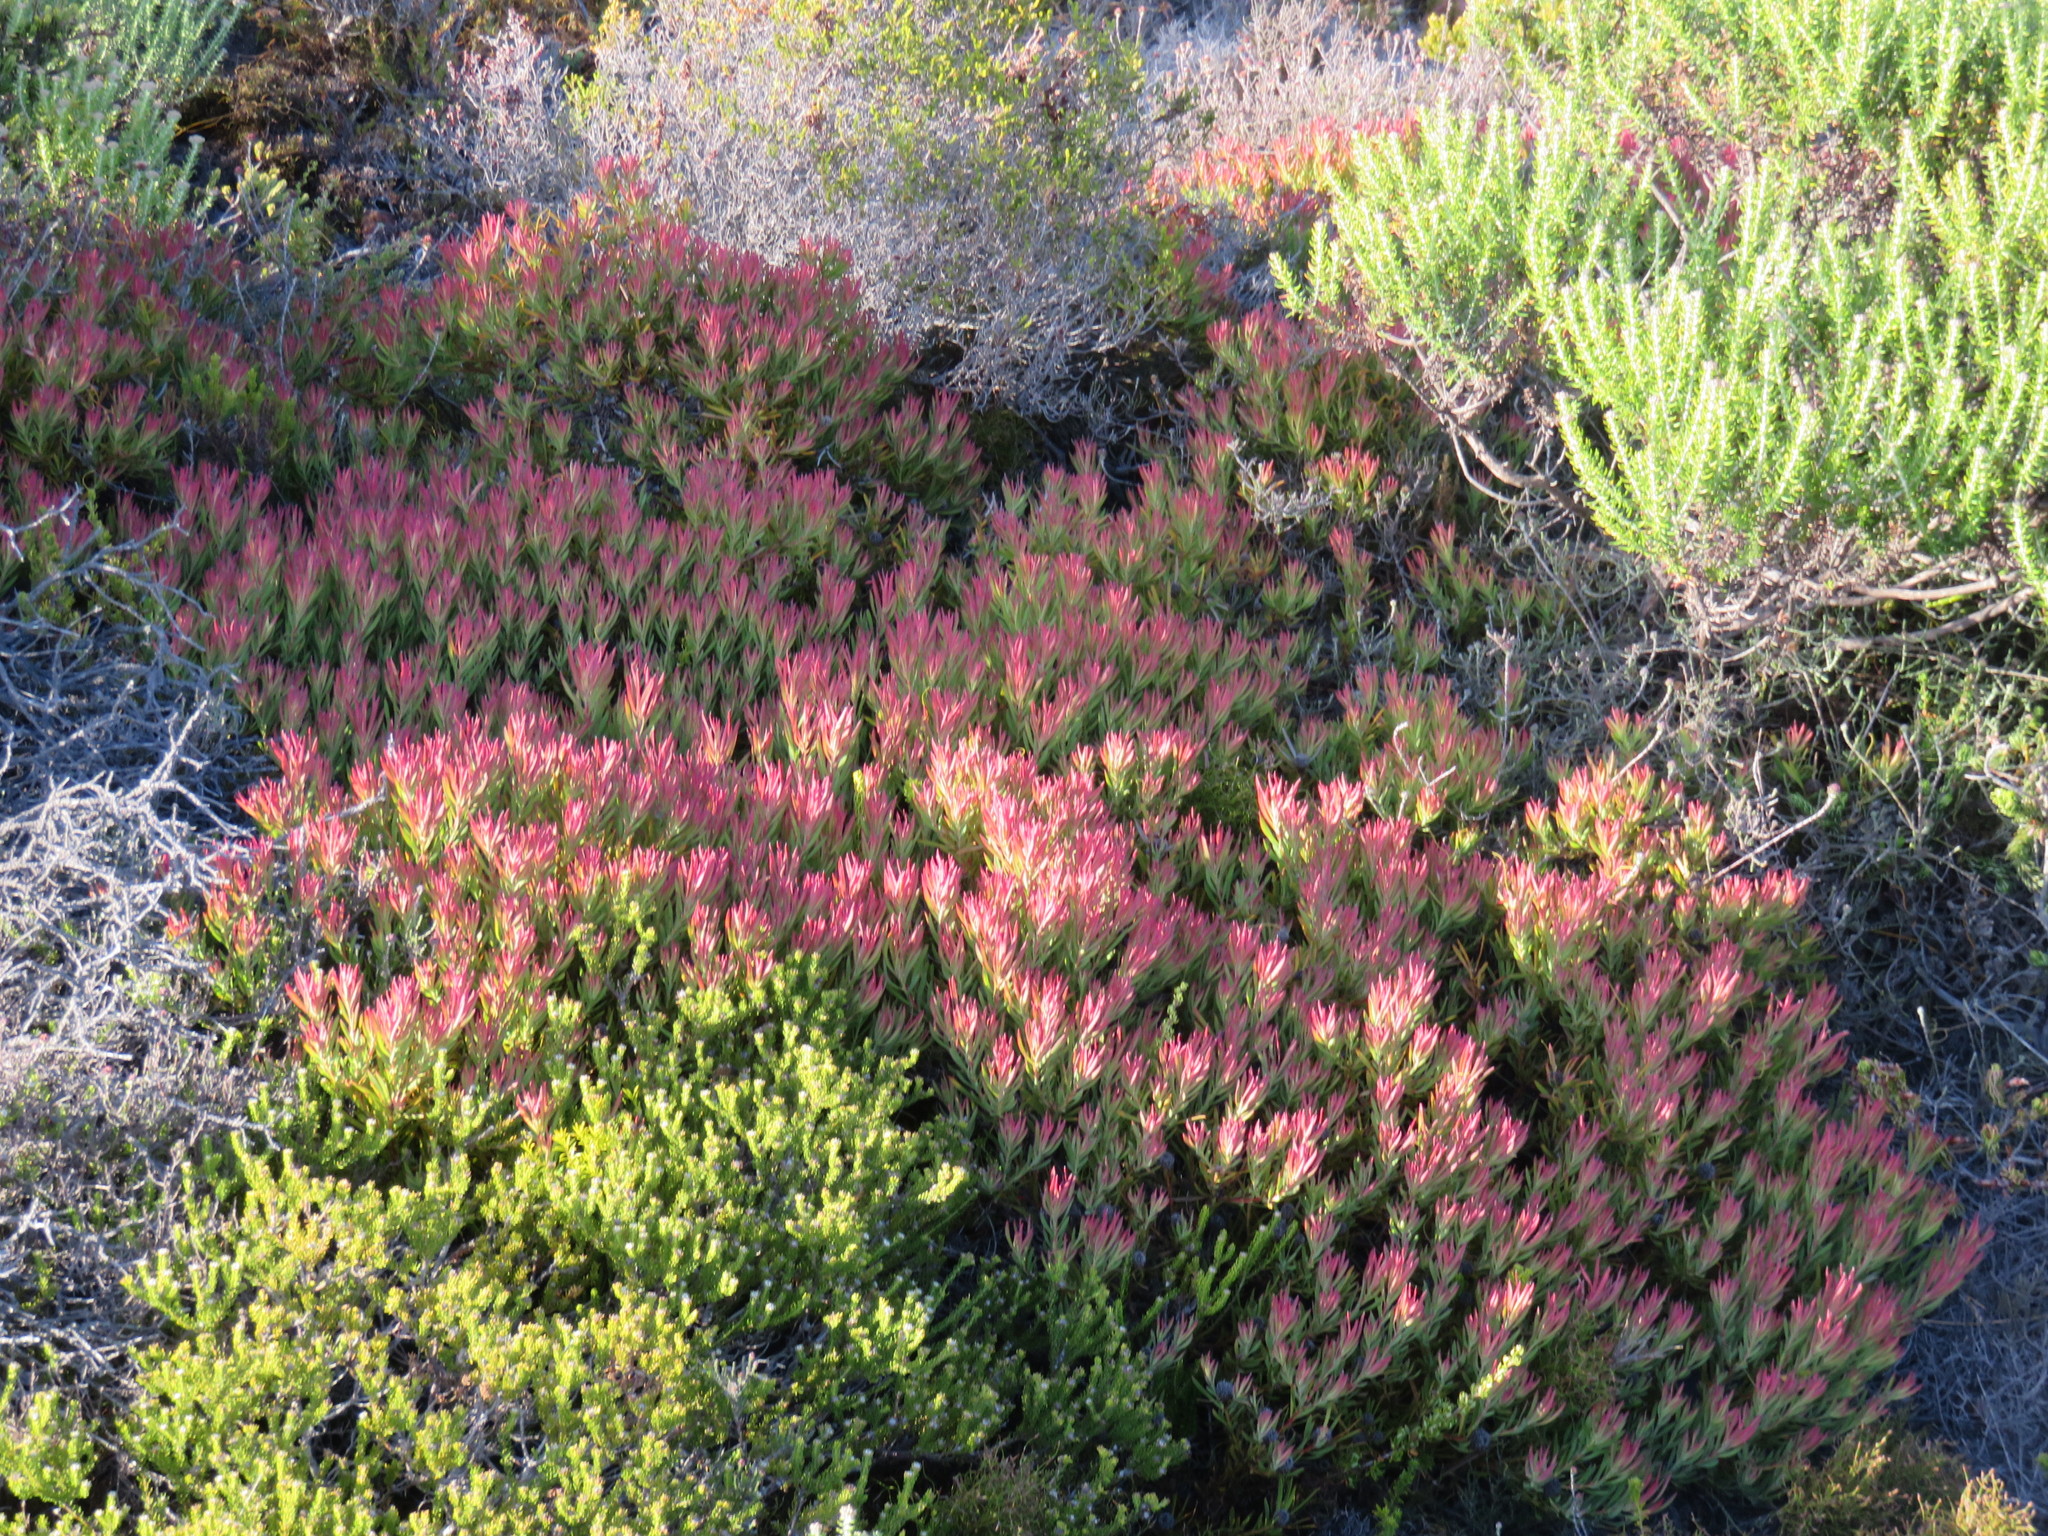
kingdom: Plantae
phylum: Tracheophyta
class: Magnoliopsida
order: Proteales
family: Proteaceae
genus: Leucadendron
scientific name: Leucadendron salignum
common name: Common sunshine conebush
